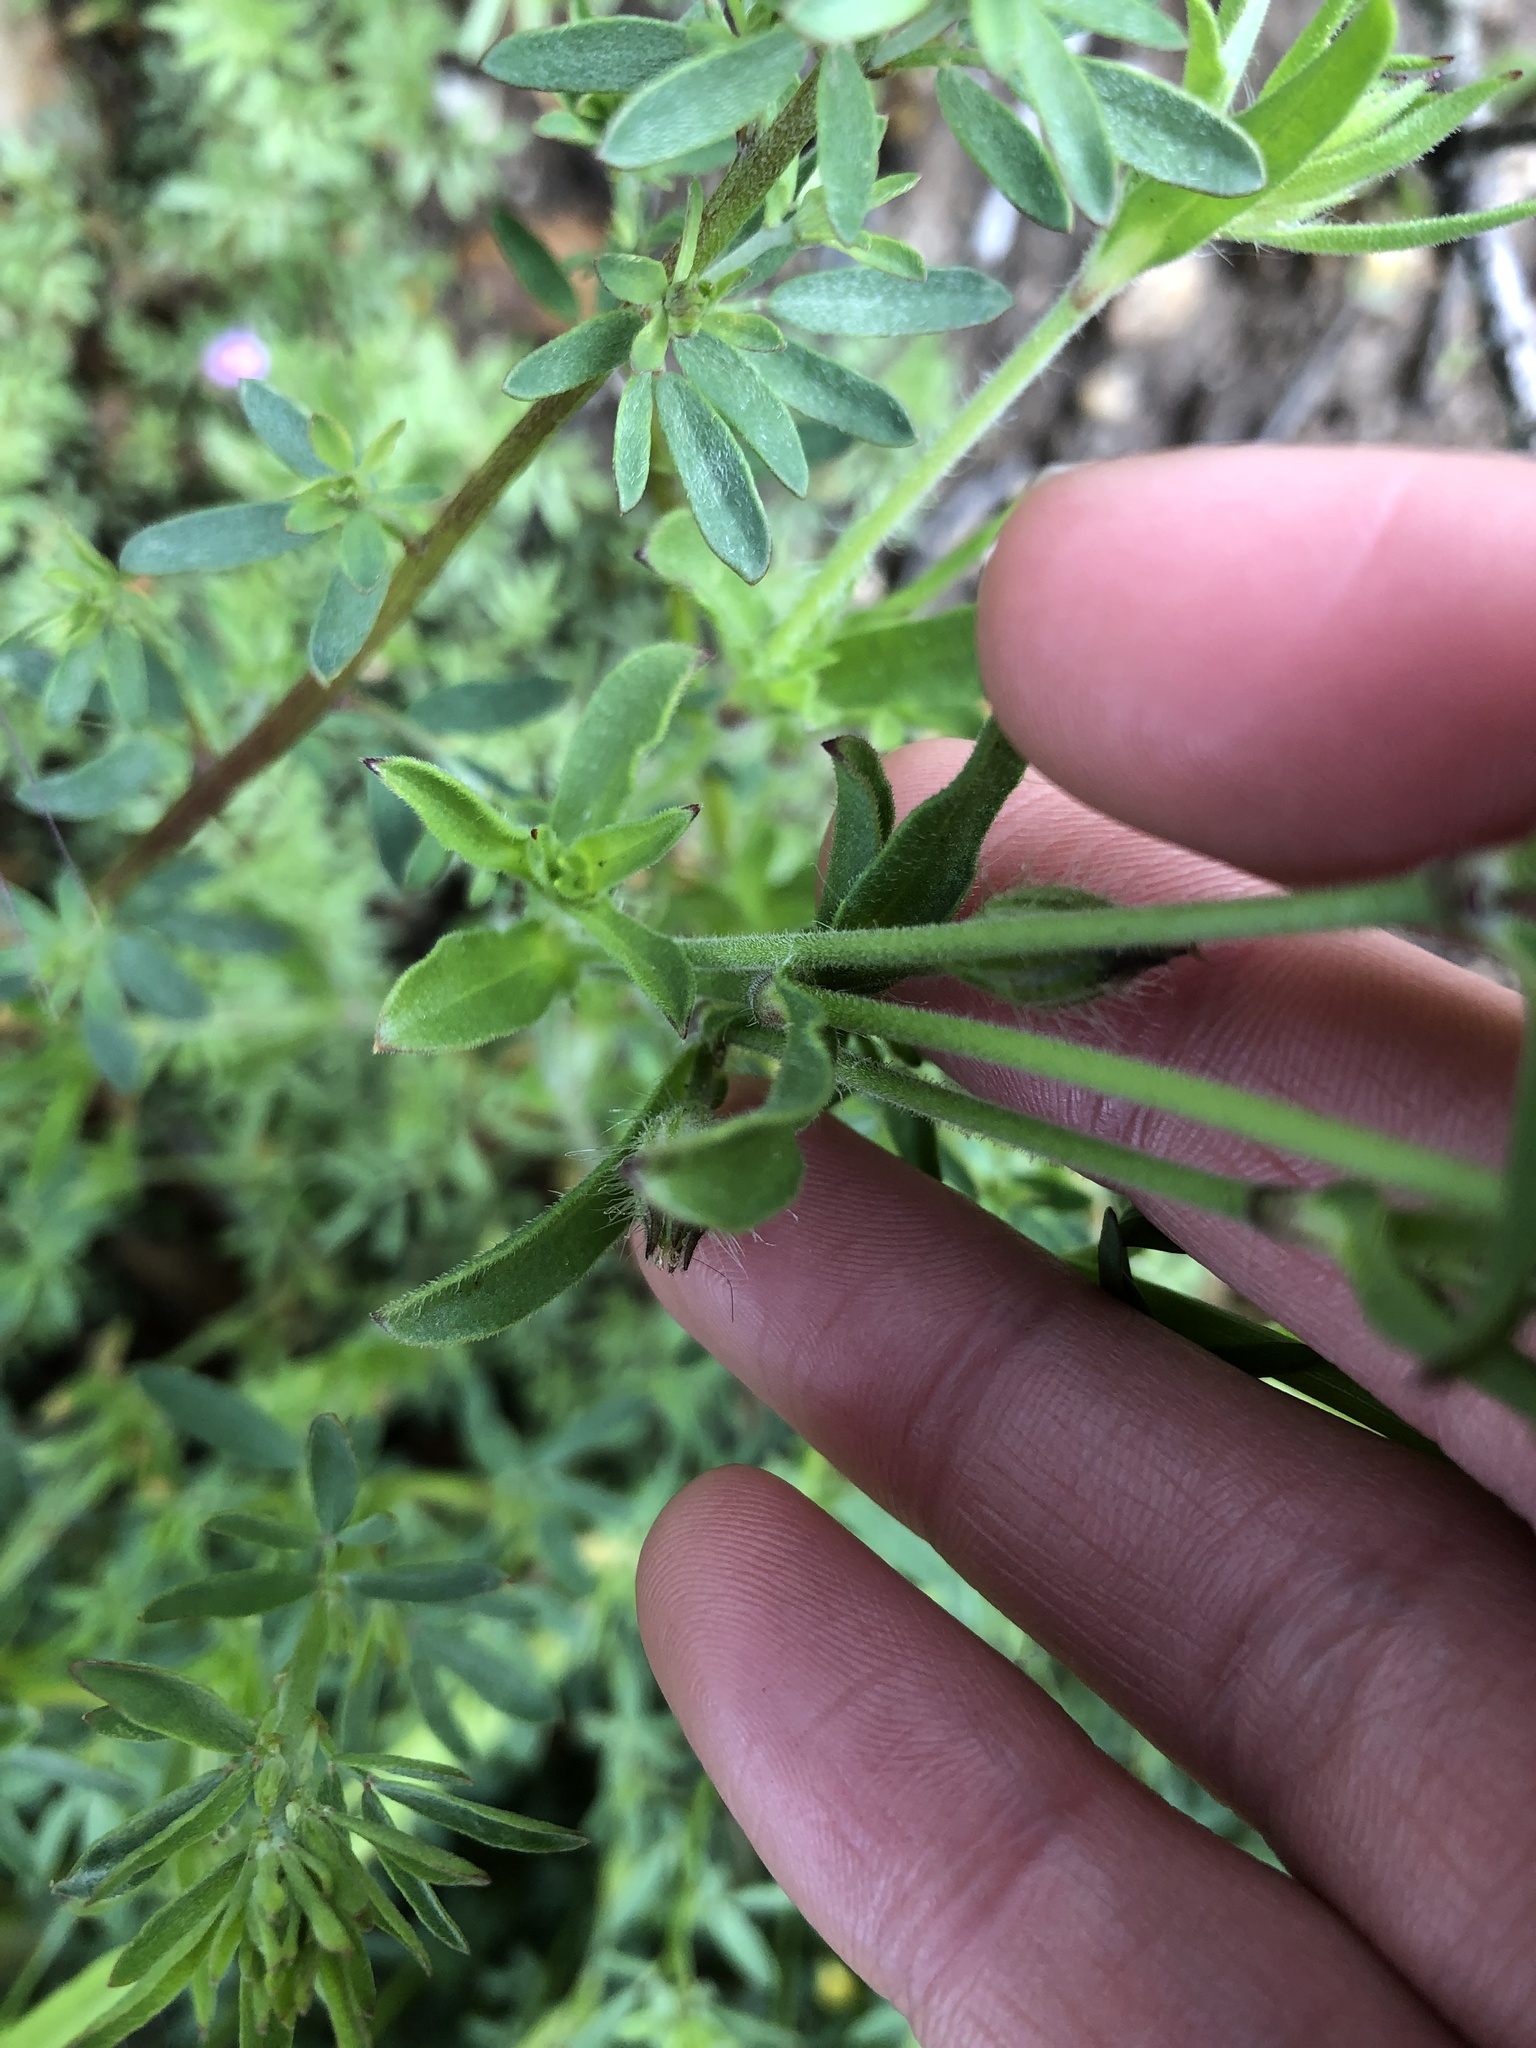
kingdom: Plantae
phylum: Tracheophyta
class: Magnoliopsida
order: Caryophyllales
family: Caryophyllaceae
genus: Silene
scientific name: Silene gallica
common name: Small-flowered catchfly
